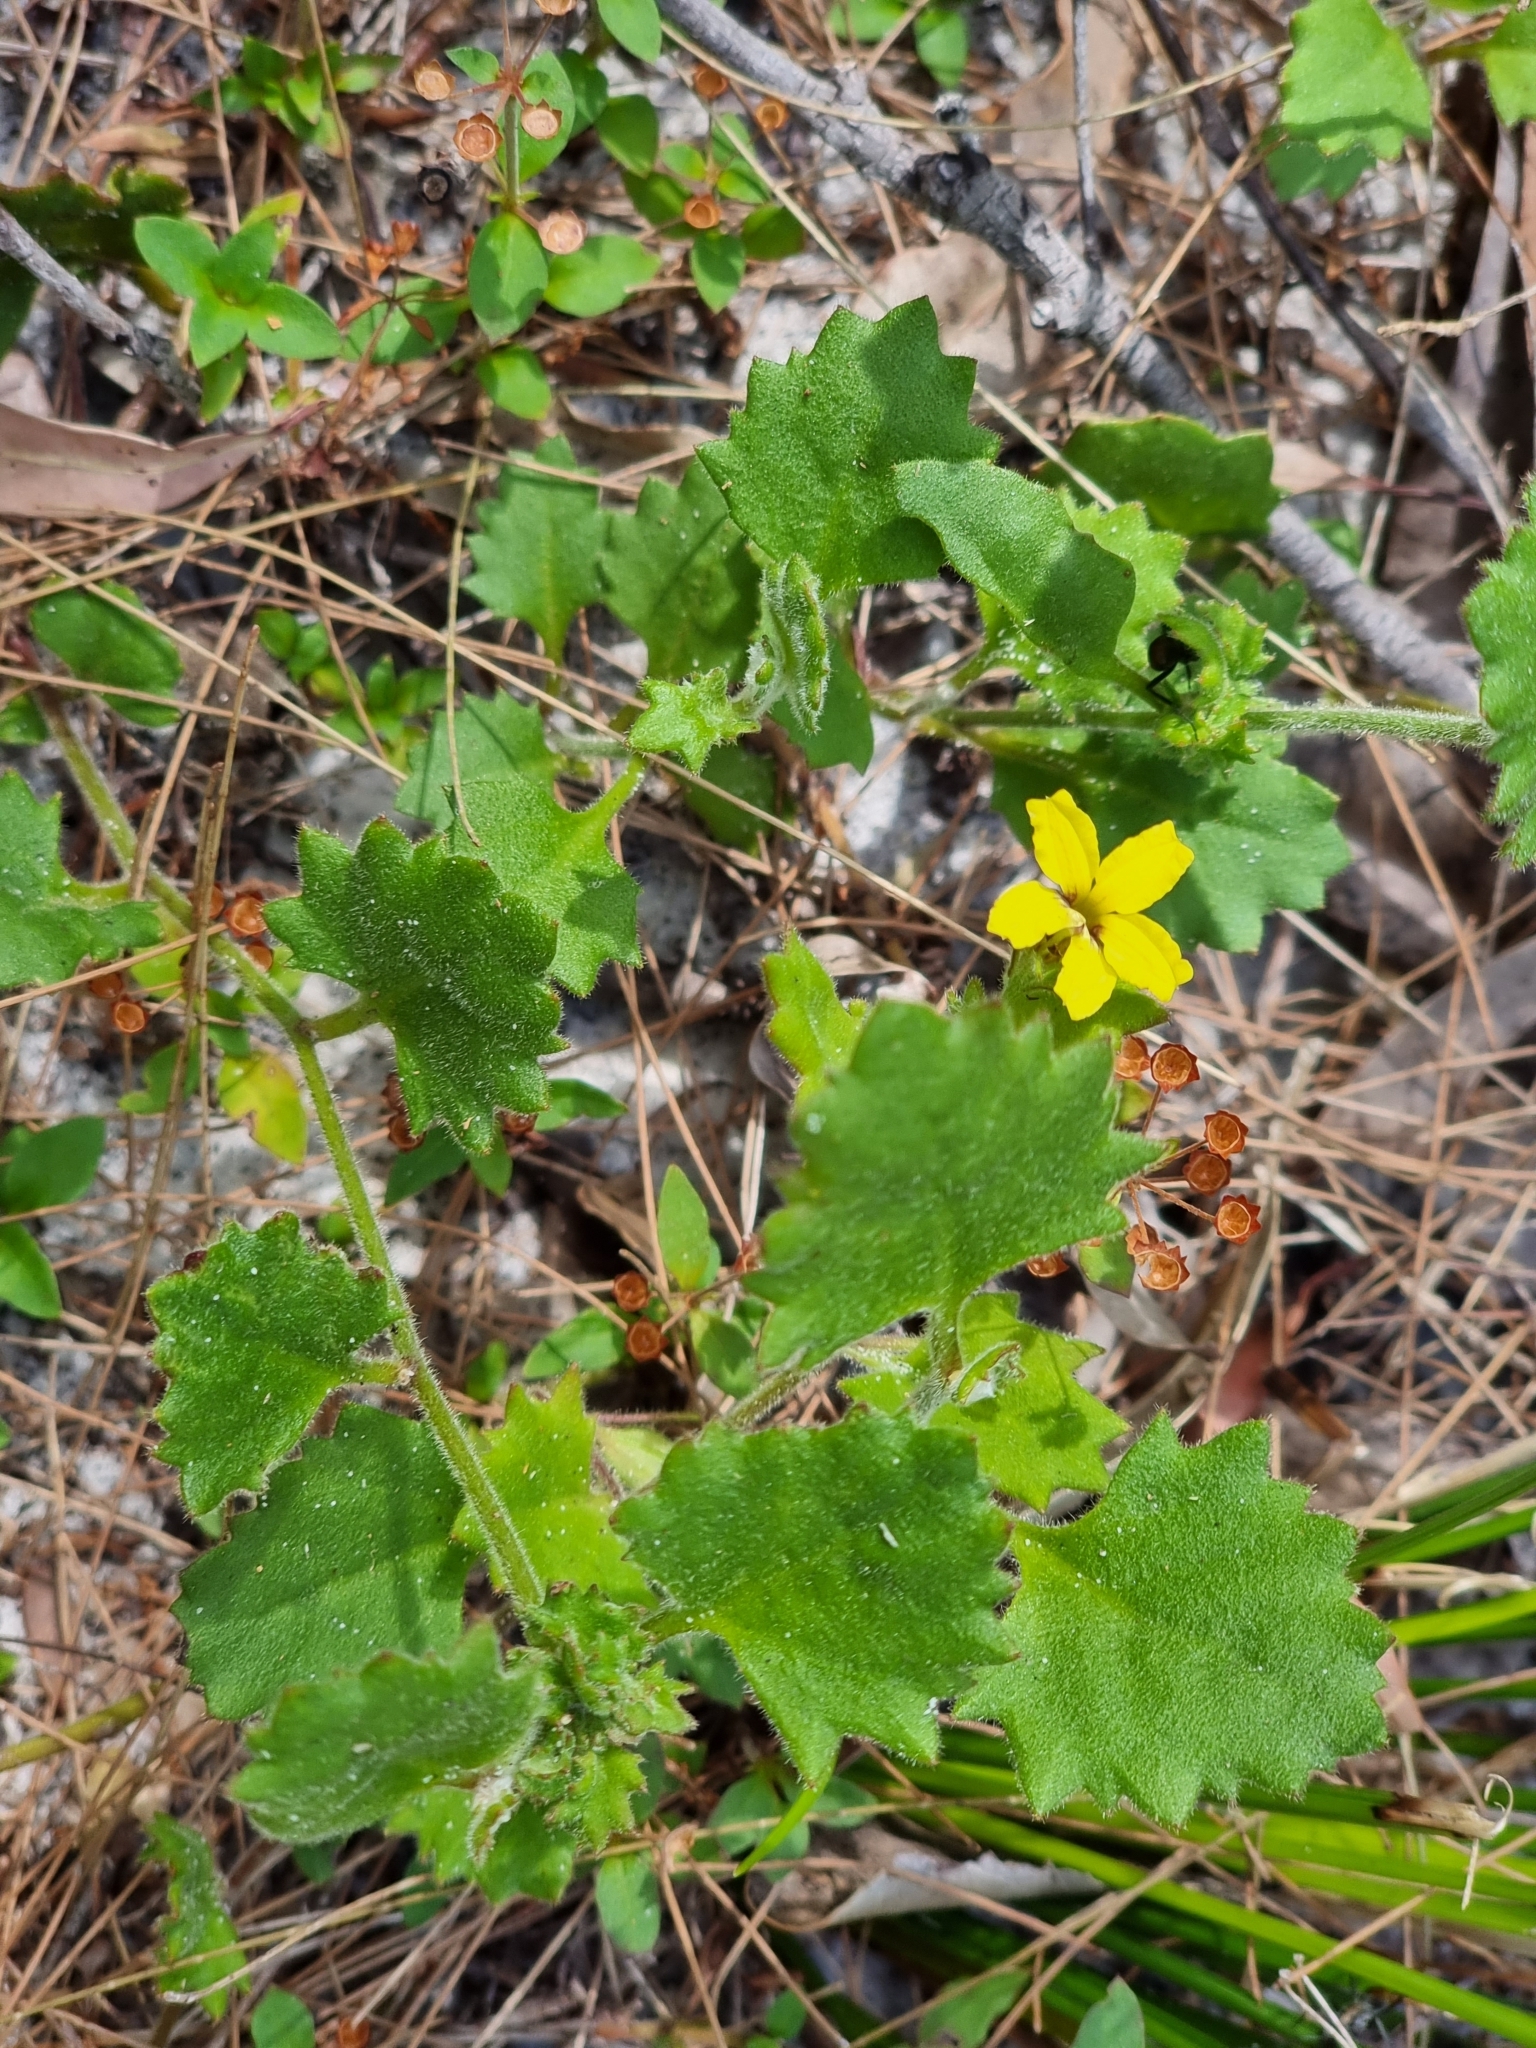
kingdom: Plantae
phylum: Tracheophyta
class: Magnoliopsida
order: Asterales
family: Goodeniaceae
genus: Goodenia
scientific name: Goodenia rotundifolia
